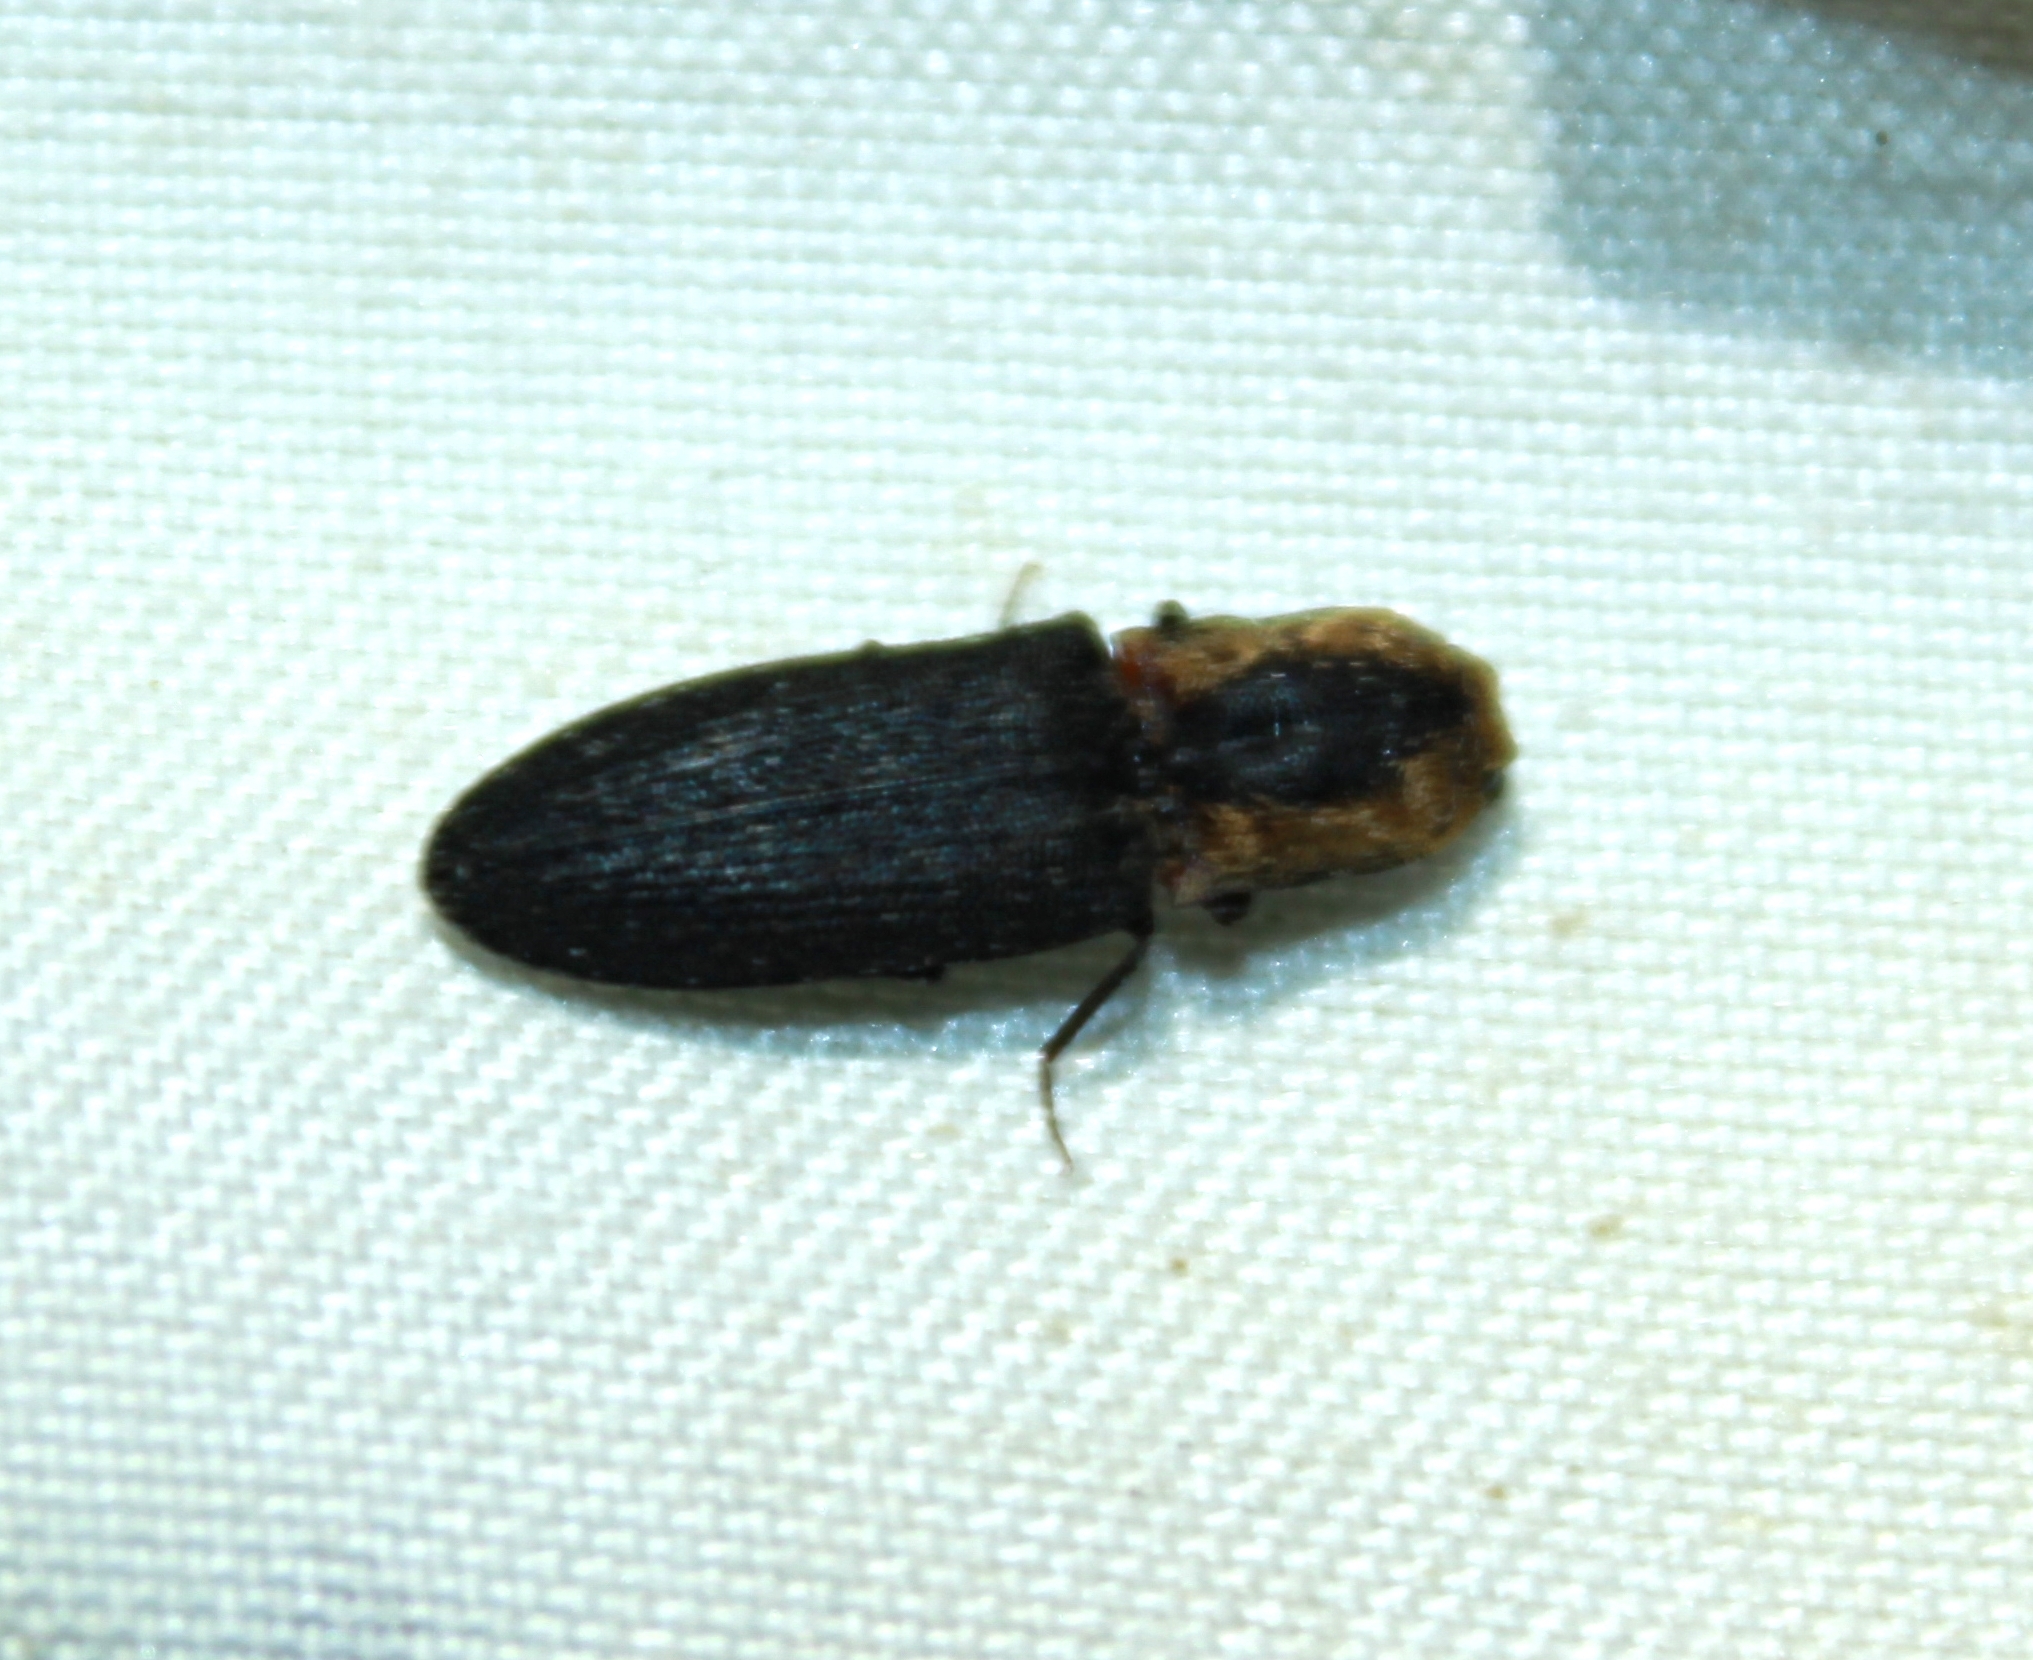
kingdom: Animalia
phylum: Arthropoda
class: Insecta
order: Coleoptera
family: Elateridae
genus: Lacon
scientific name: Lacon discoideus
